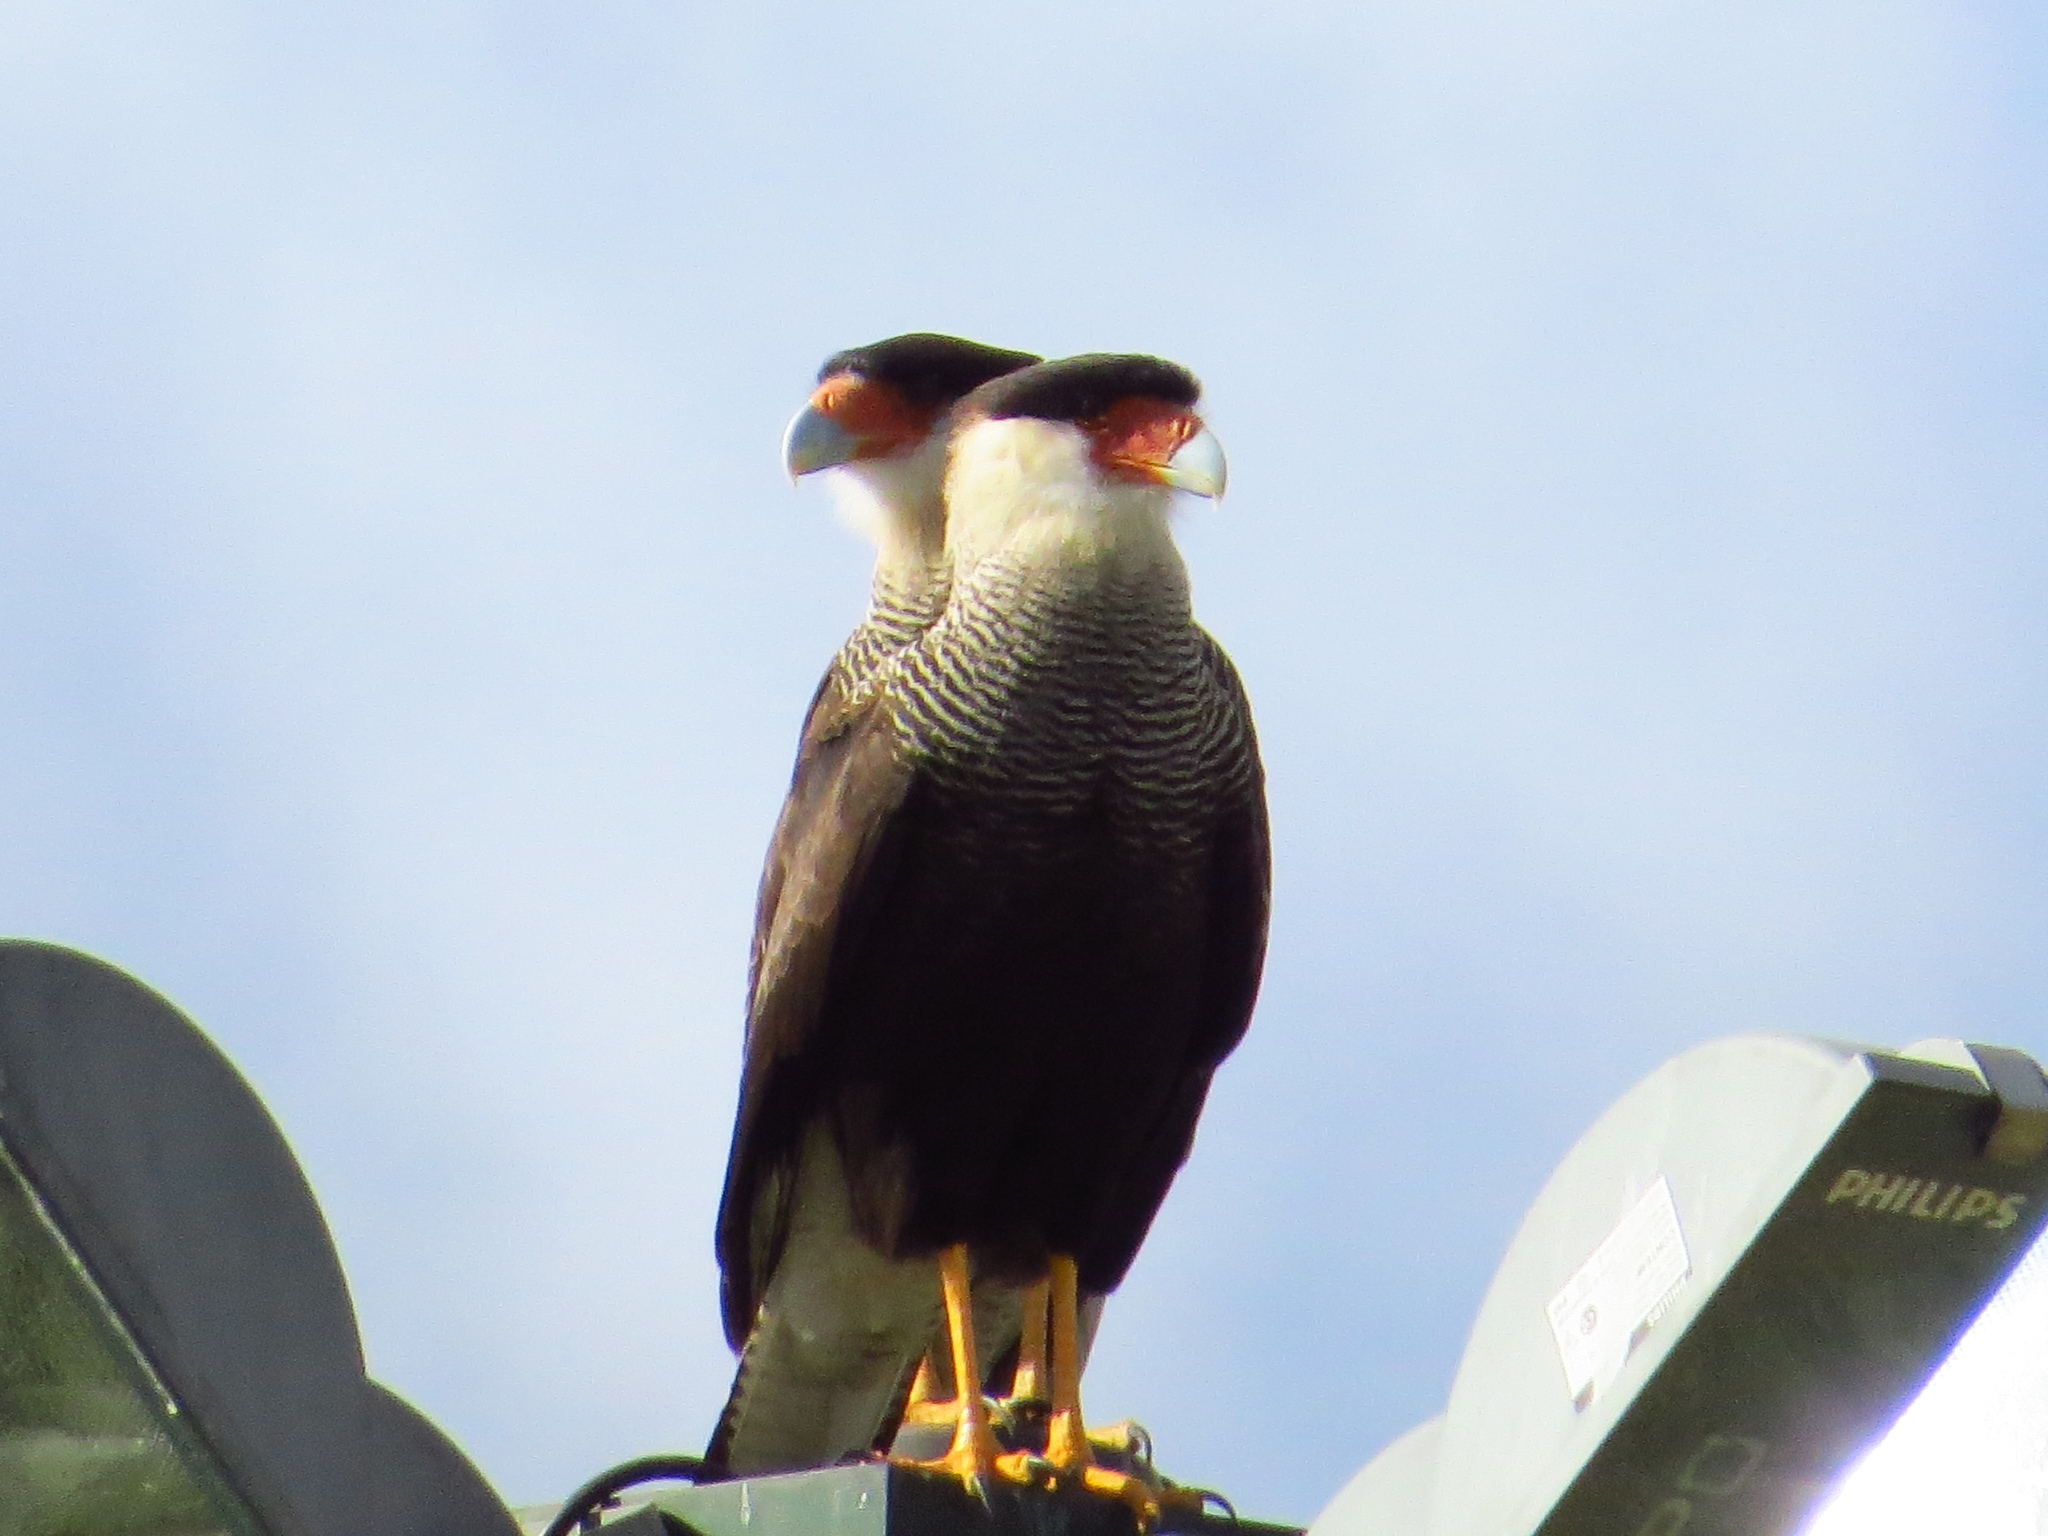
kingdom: Animalia
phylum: Chordata
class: Aves
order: Falconiformes
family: Falconidae
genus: Caracara
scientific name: Caracara plancus
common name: Southern caracara
